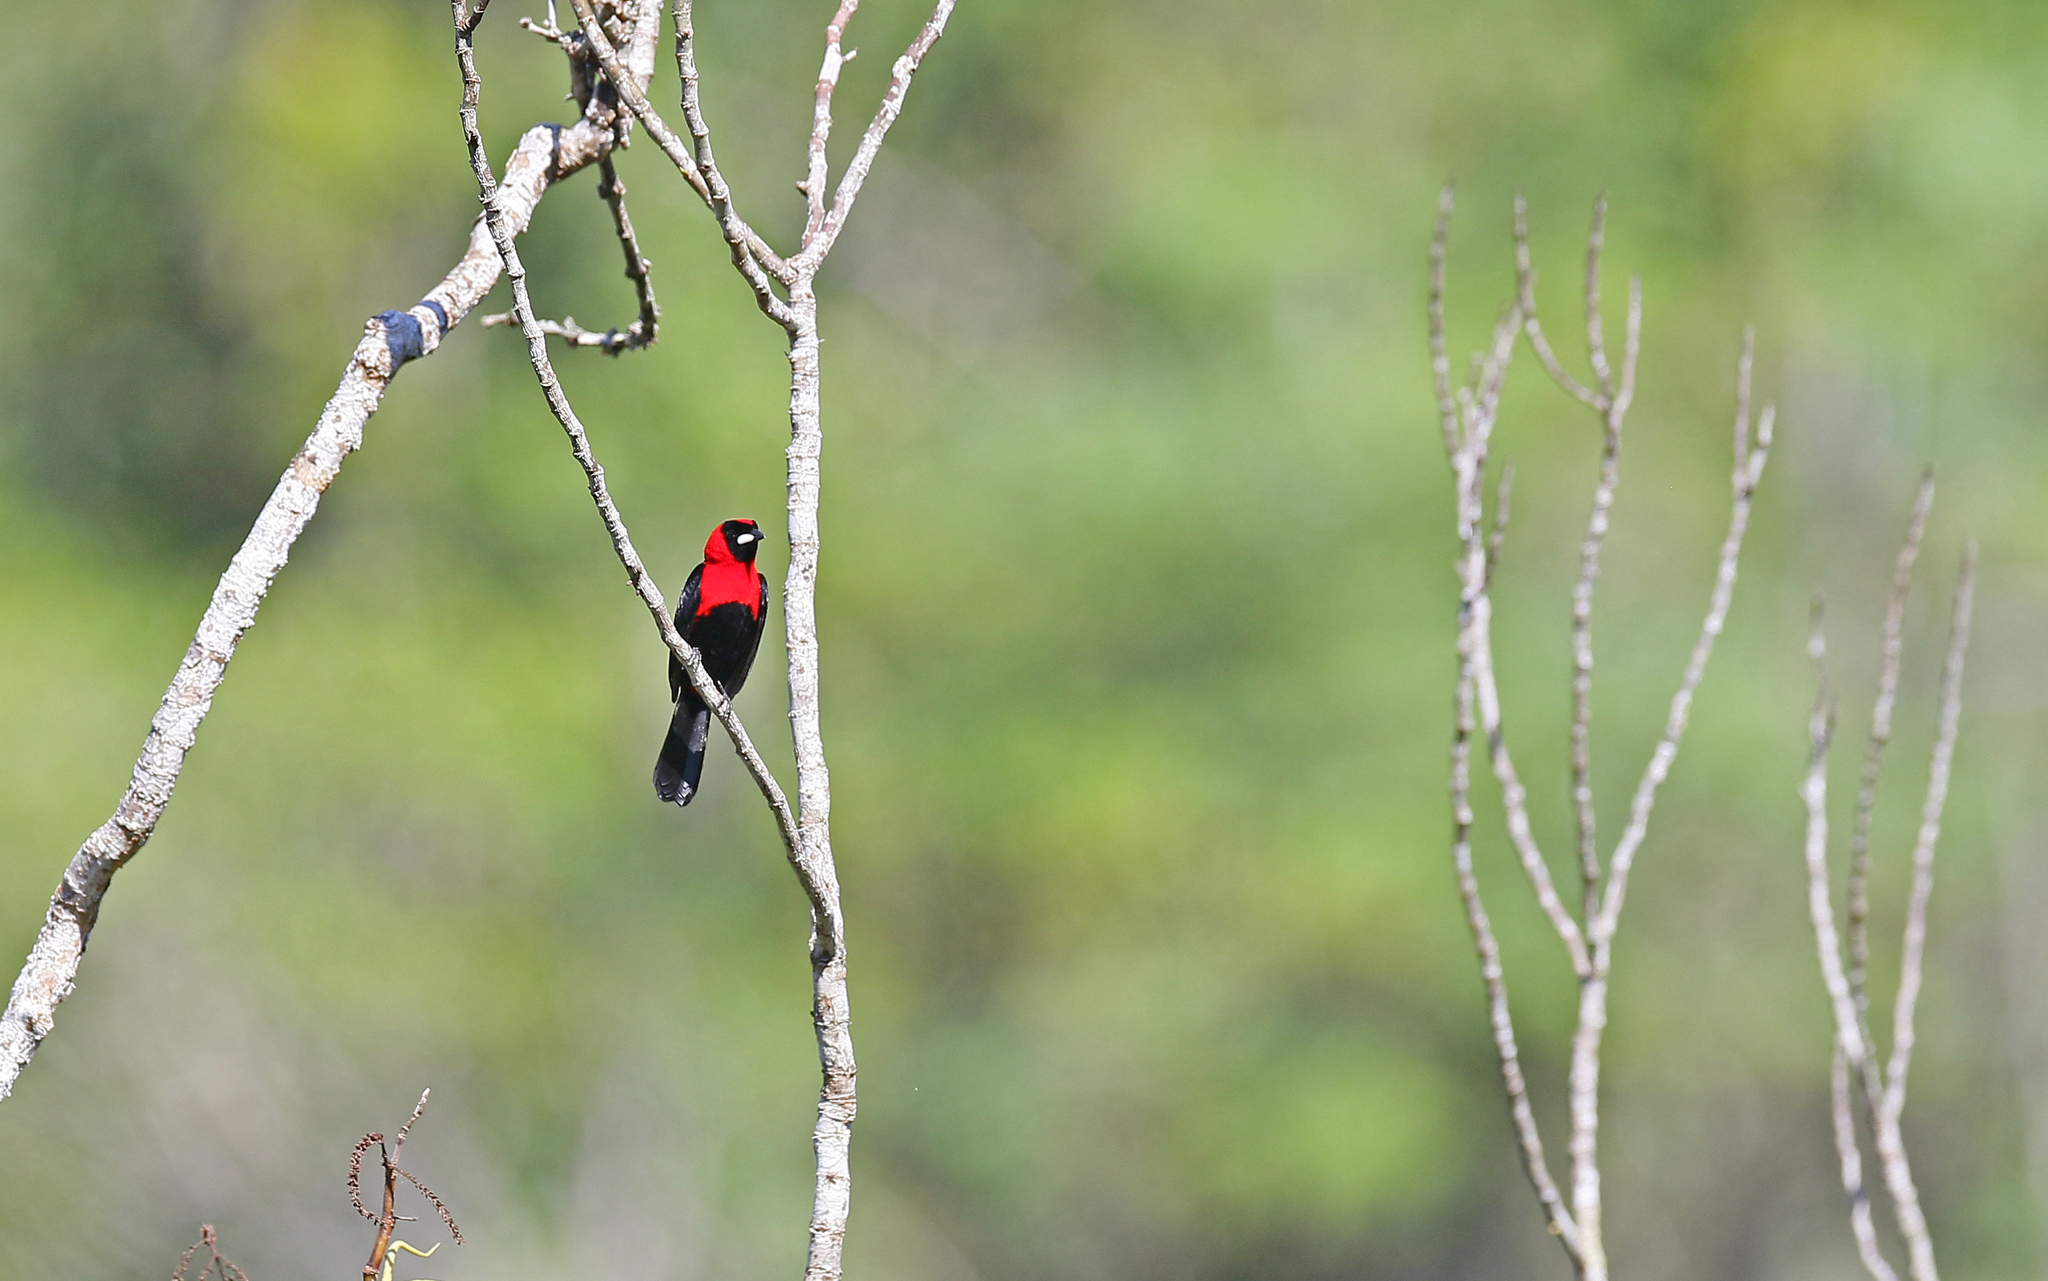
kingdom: Animalia
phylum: Chordata
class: Aves
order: Passeriformes
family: Thraupidae
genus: Ramphocelus
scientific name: Ramphocelus nigrogularis
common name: Masked crimson tanager
